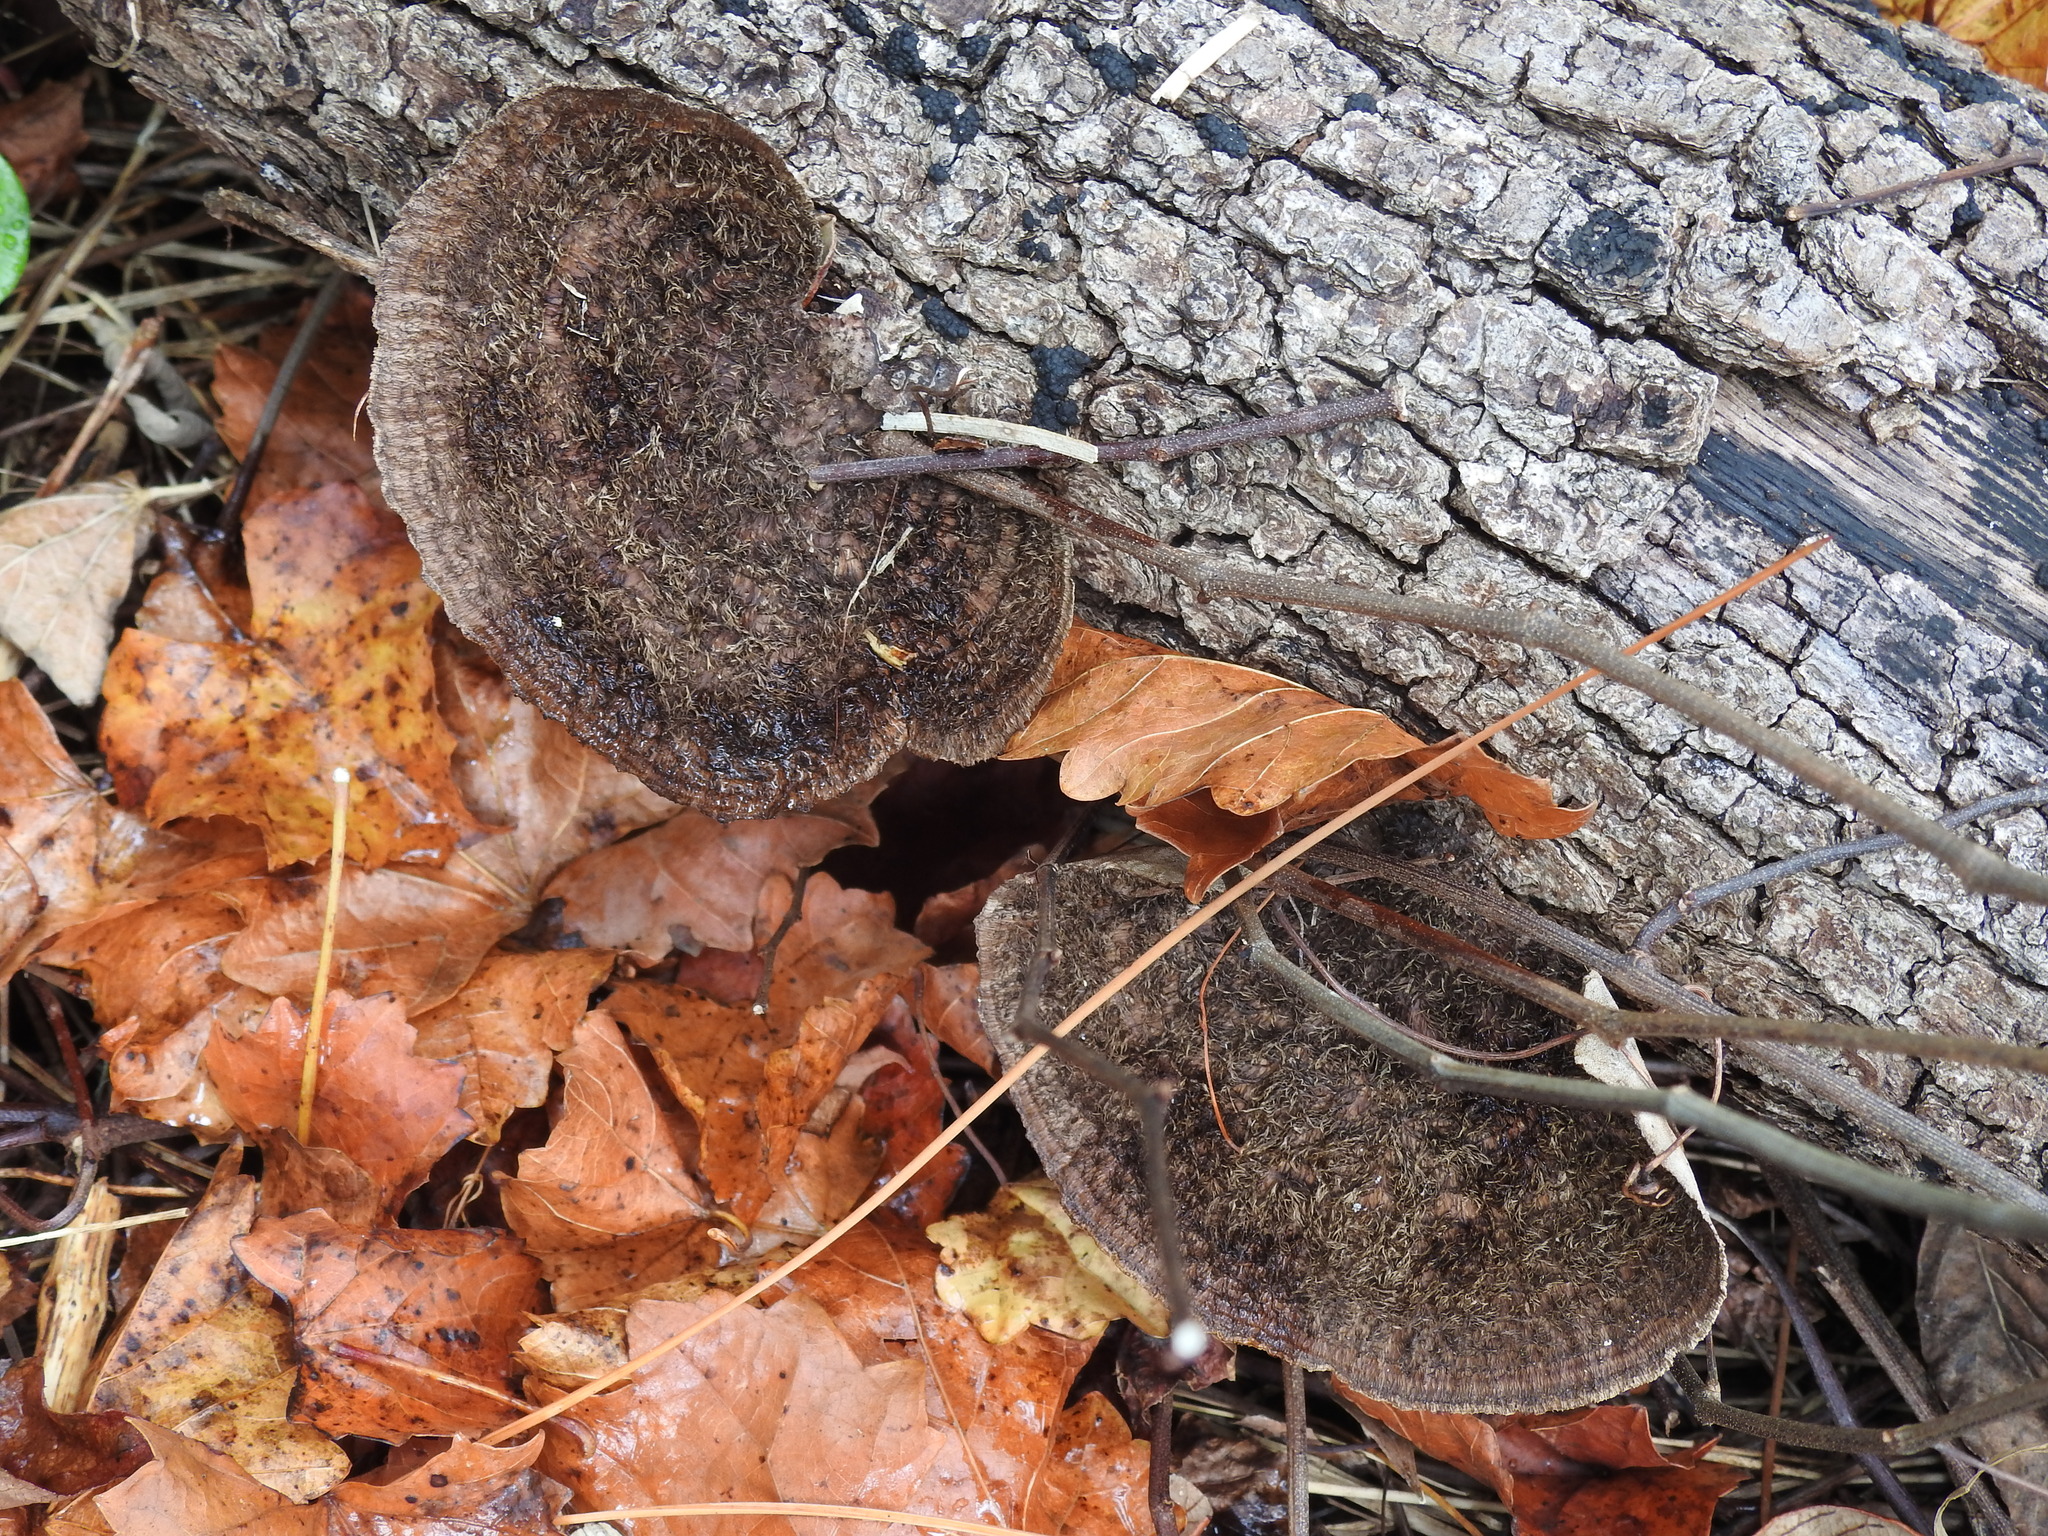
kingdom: Fungi
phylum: Basidiomycota
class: Agaricomycetes
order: Polyporales
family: Cerrenaceae
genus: Cerrena
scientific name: Cerrena hydnoides
